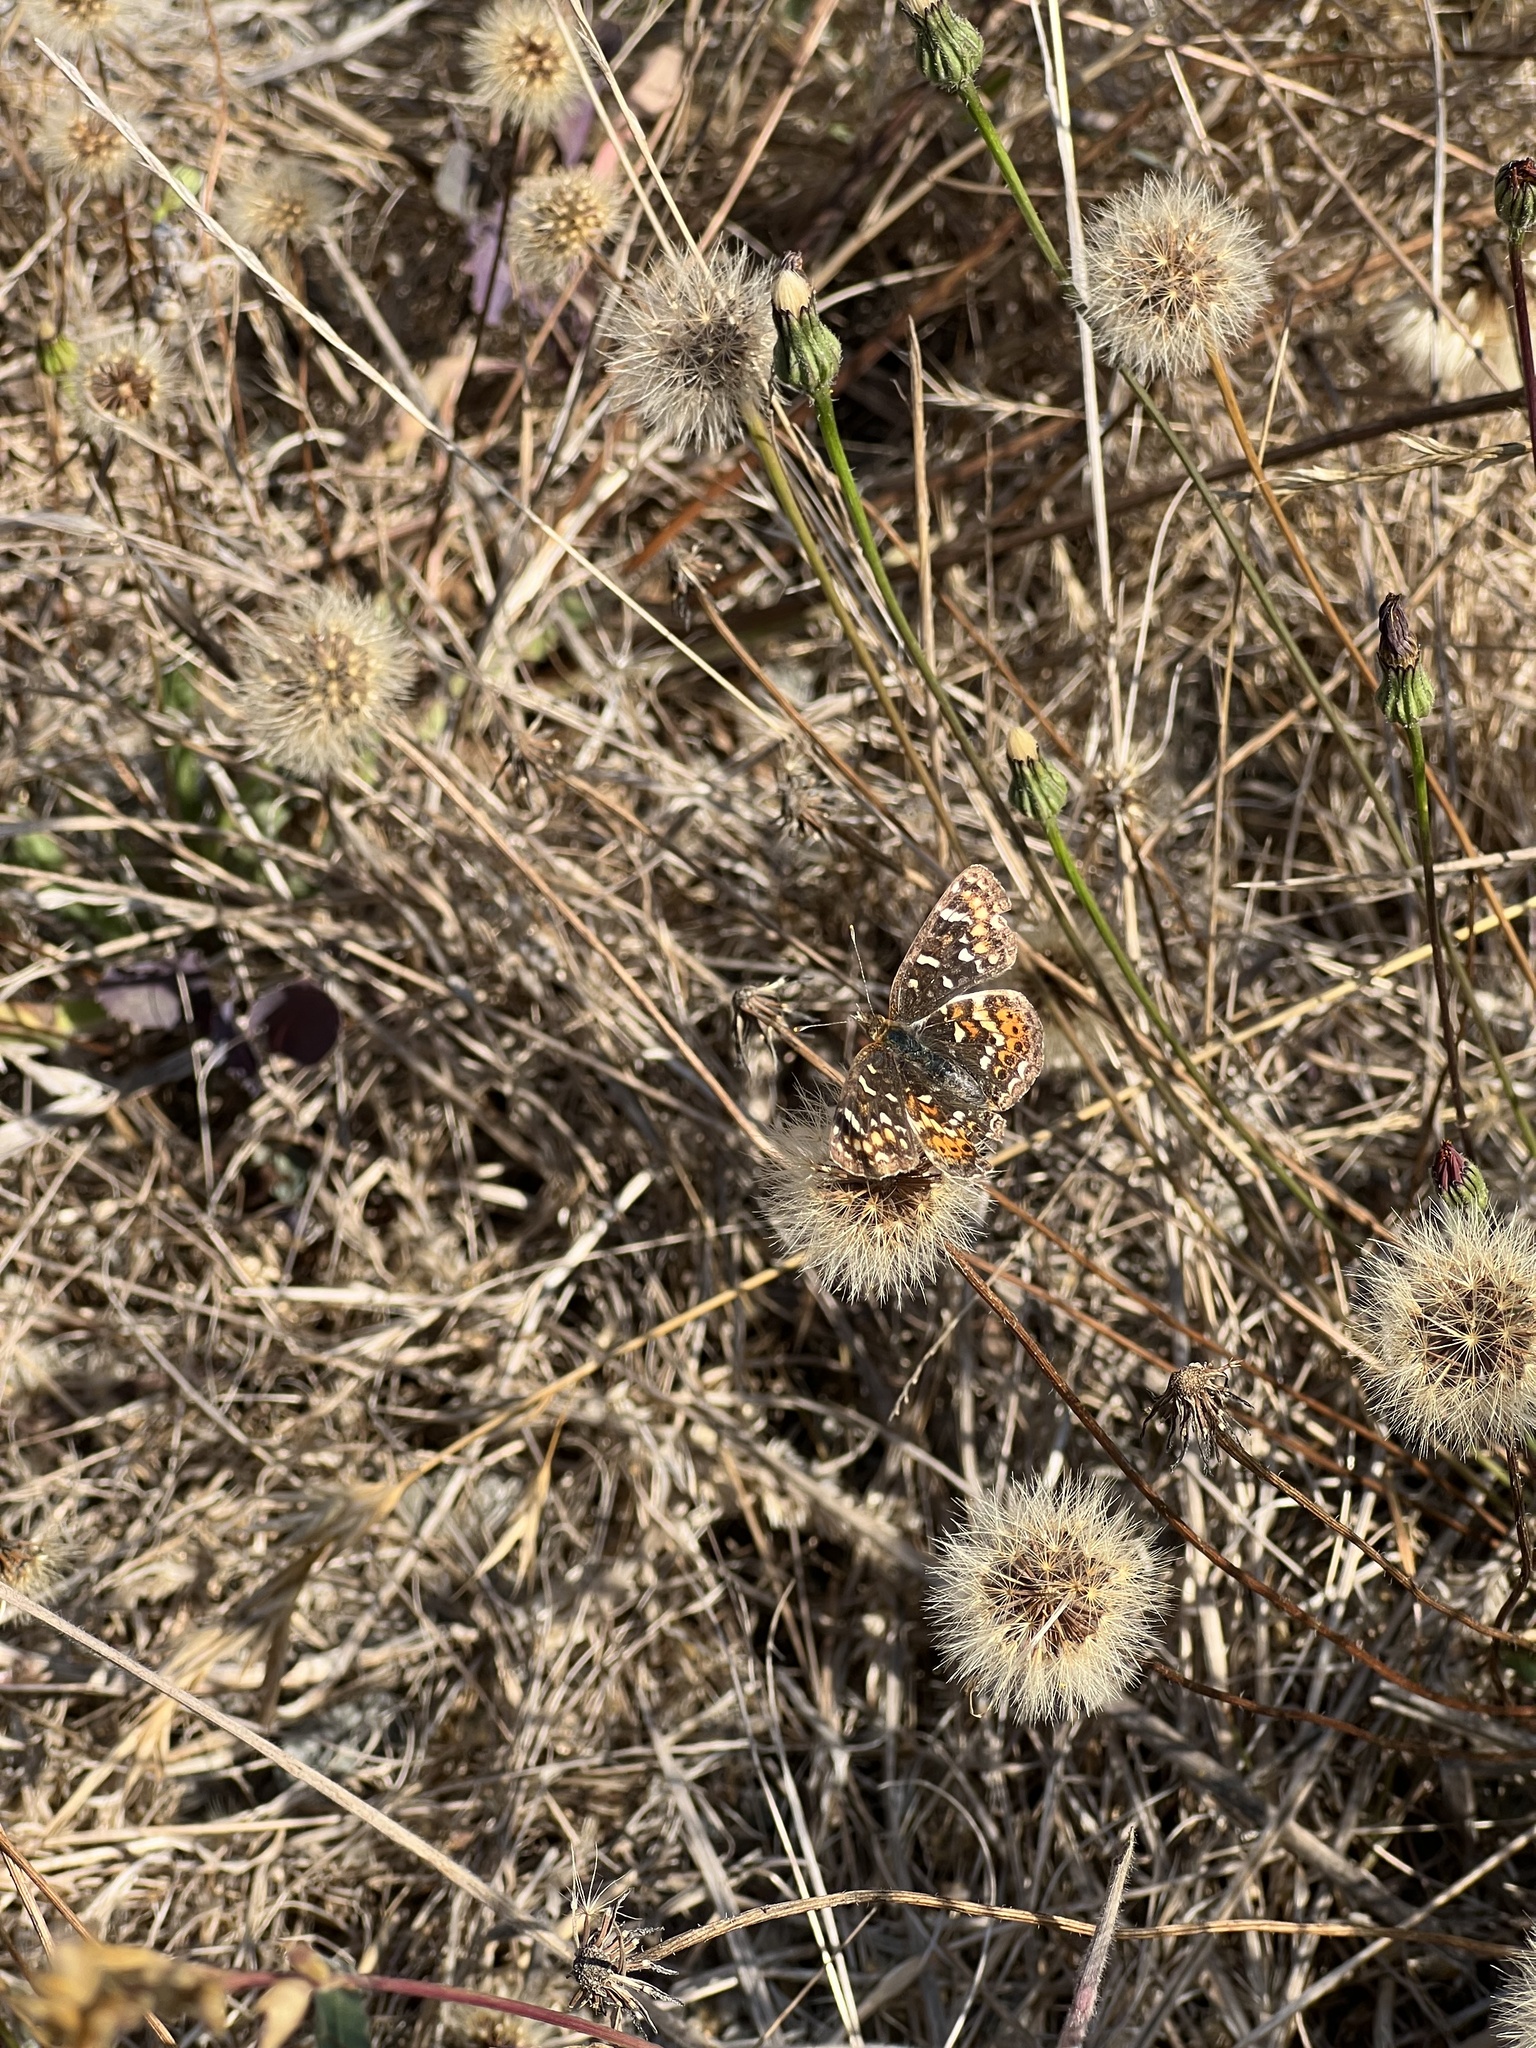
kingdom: Animalia
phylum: Arthropoda
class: Insecta
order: Lepidoptera
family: Nymphalidae
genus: Phyciodes
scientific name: Phyciodes tharos
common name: Pearl crescent
